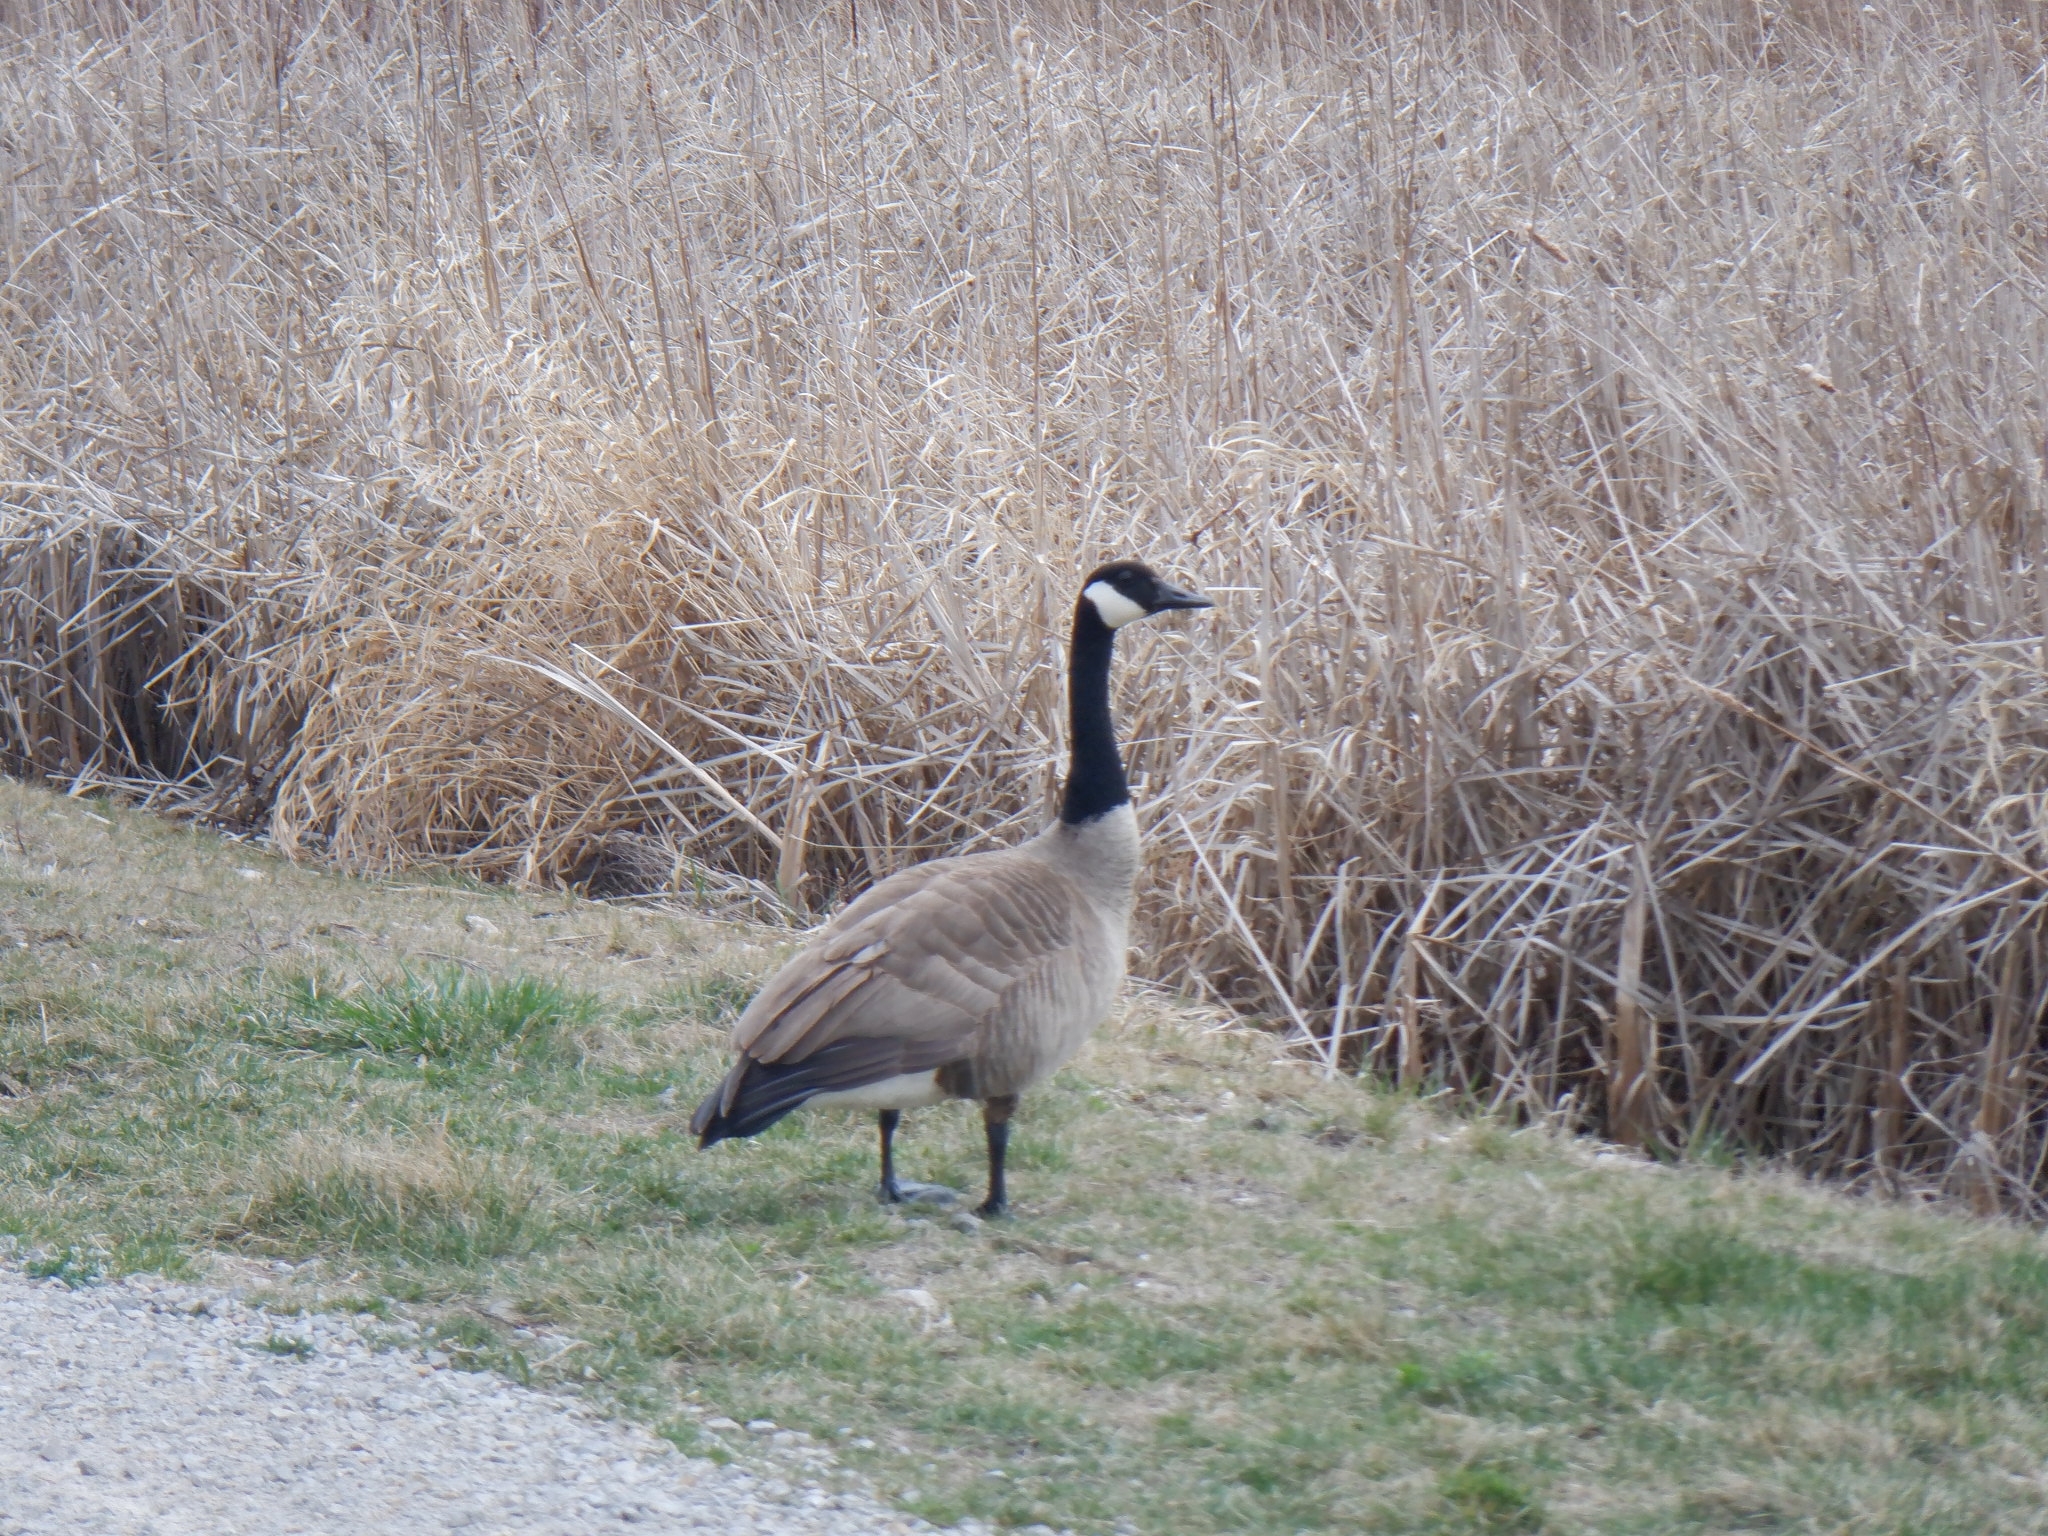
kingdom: Animalia
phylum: Chordata
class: Aves
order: Anseriformes
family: Anatidae
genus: Branta
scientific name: Branta canadensis
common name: Canada goose
